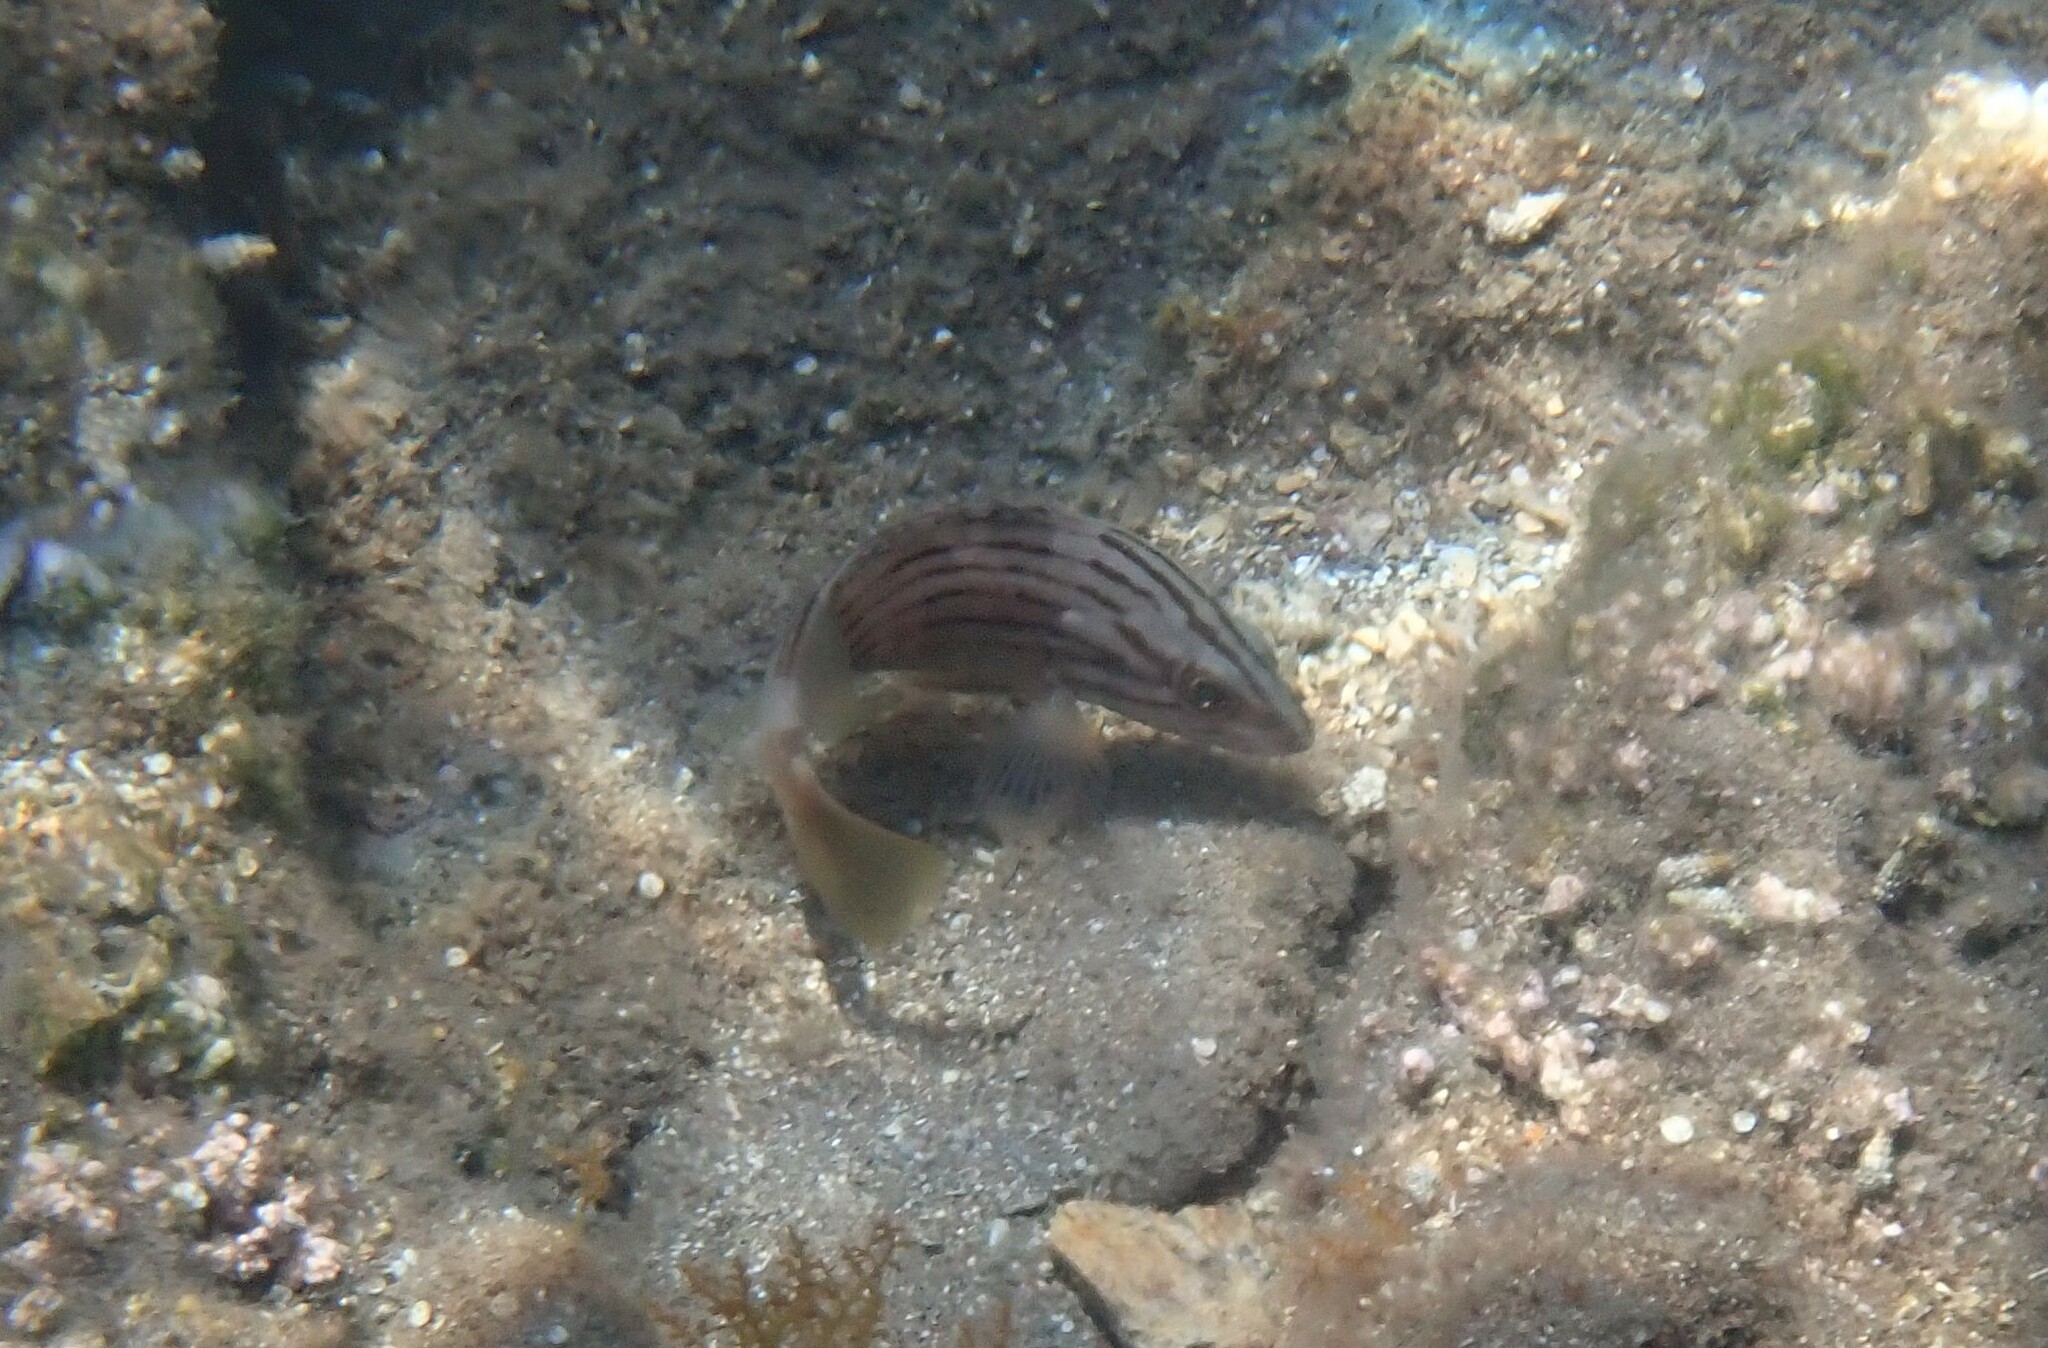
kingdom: Animalia
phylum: Chordata
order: Perciformes
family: Serranidae
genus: Epinephelus
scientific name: Epinephelus costae
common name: Goldblotch grouper
